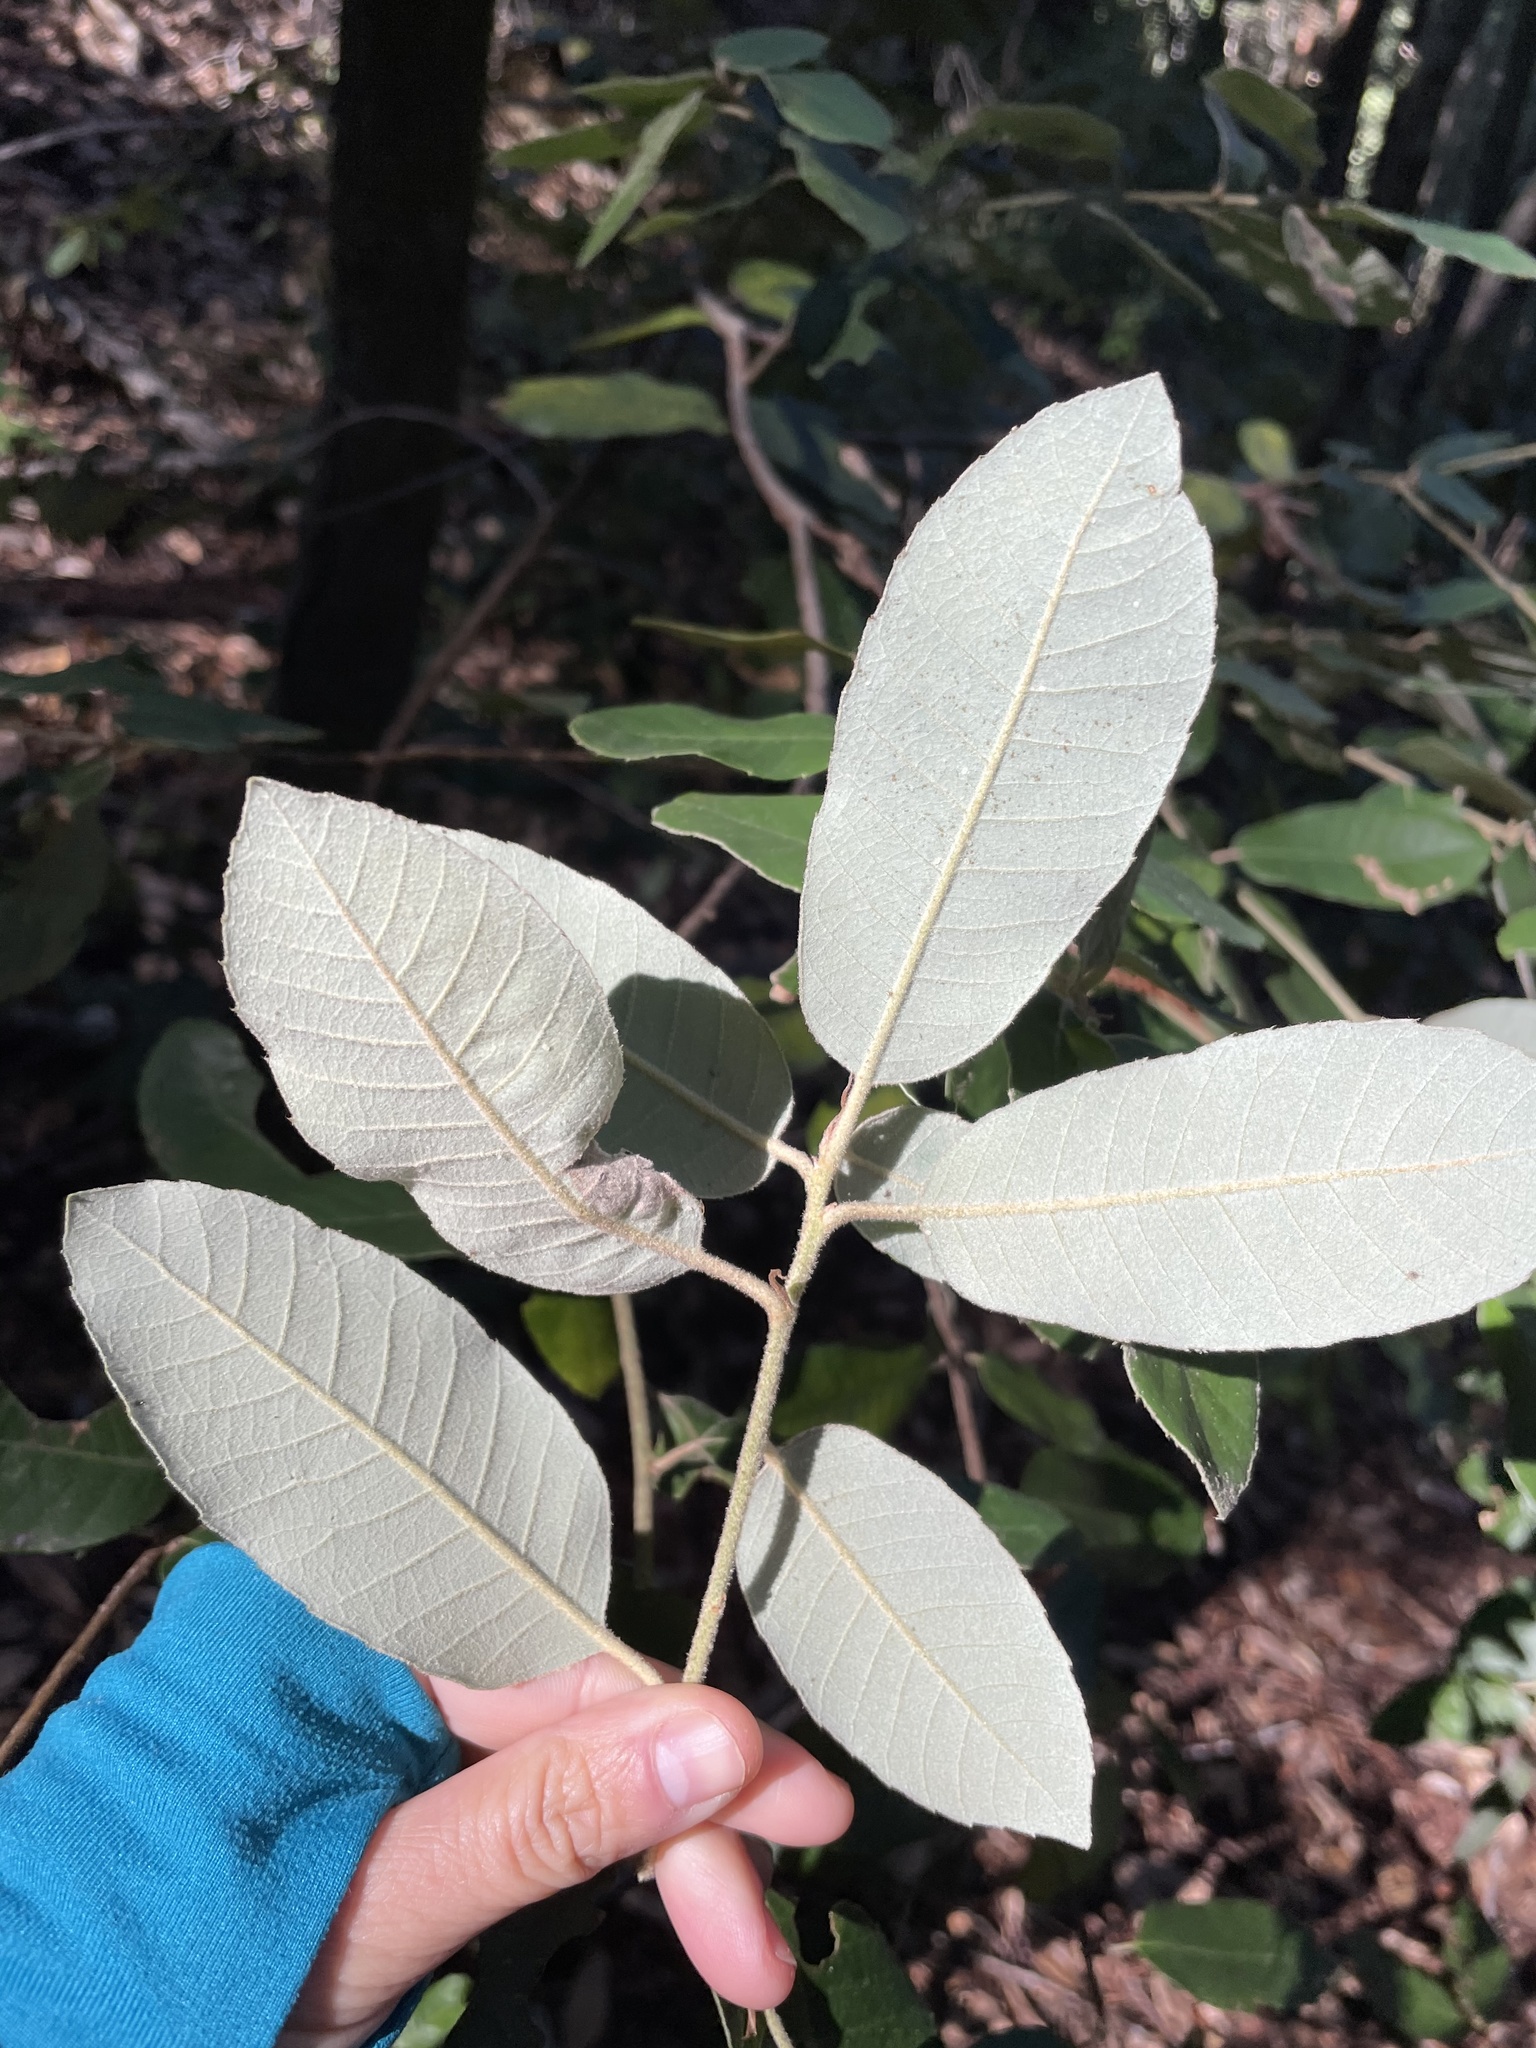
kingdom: Plantae
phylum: Tracheophyta
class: Magnoliopsida
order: Fagales
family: Fagaceae
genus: Notholithocarpus
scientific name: Notholithocarpus densiflorus
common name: Tan bark oak
